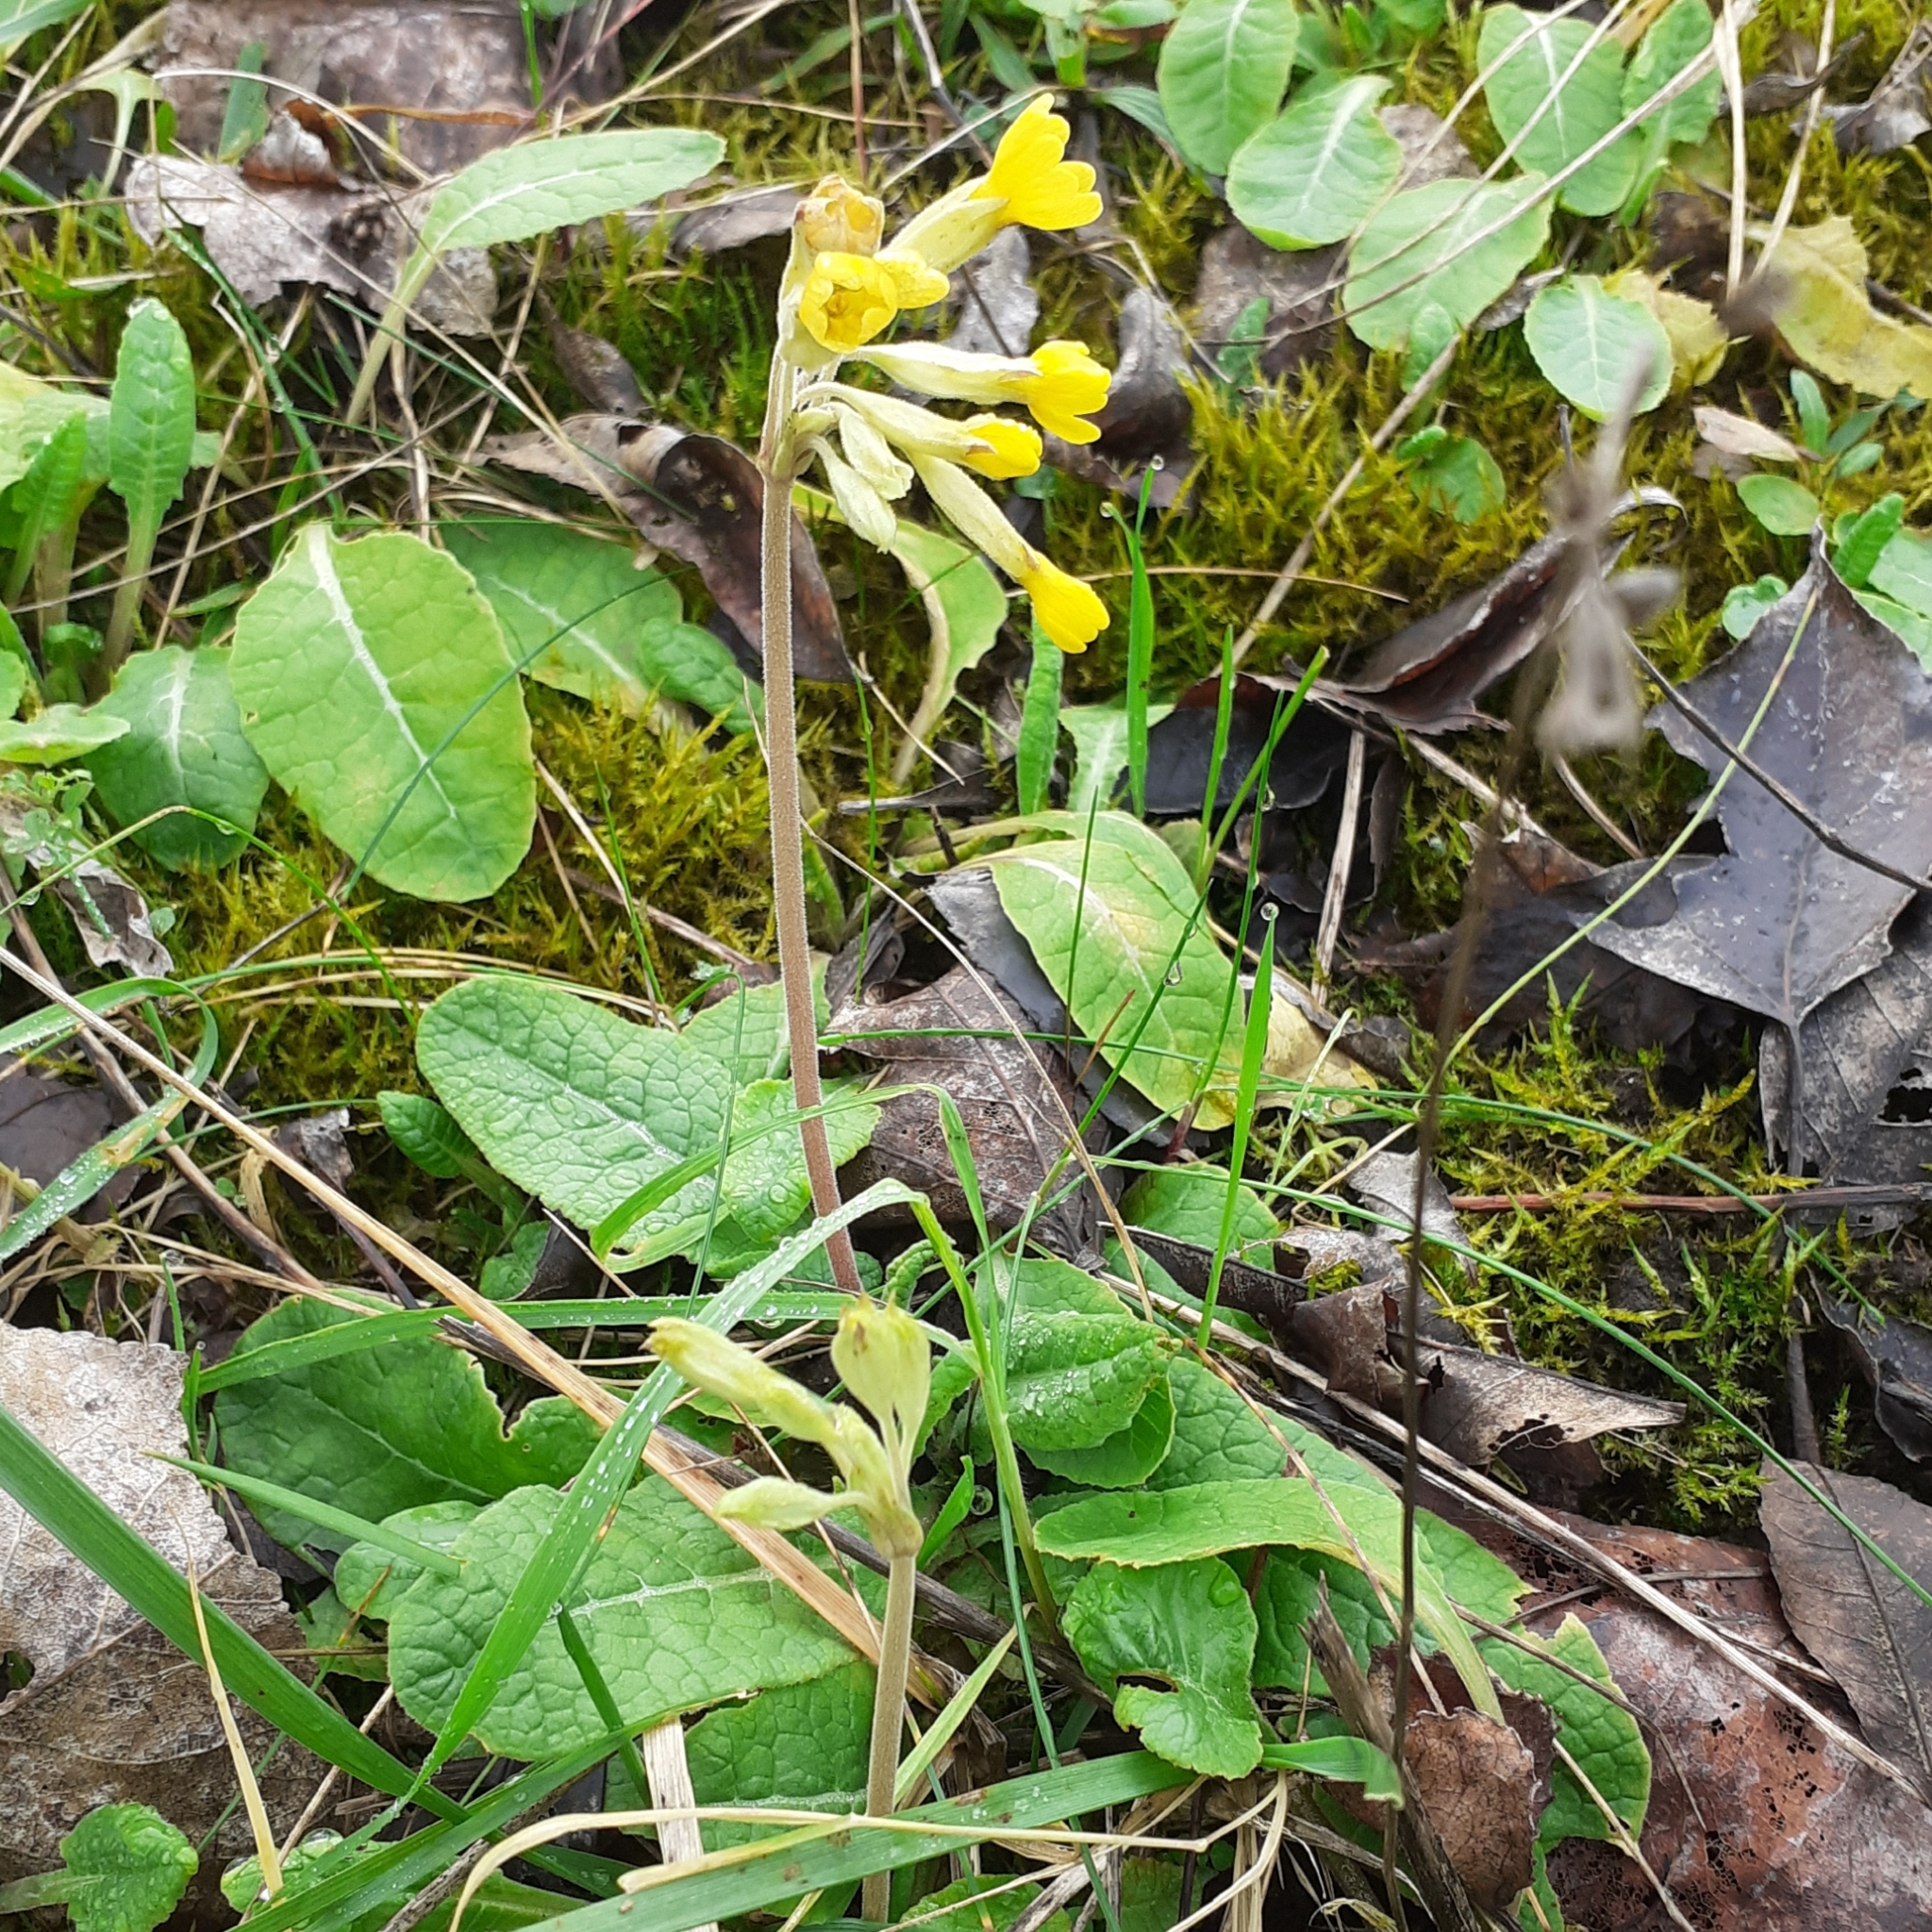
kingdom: Plantae
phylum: Tracheophyta
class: Magnoliopsida
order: Ericales
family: Primulaceae
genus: Primula
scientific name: Primula veris
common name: Cowslip
